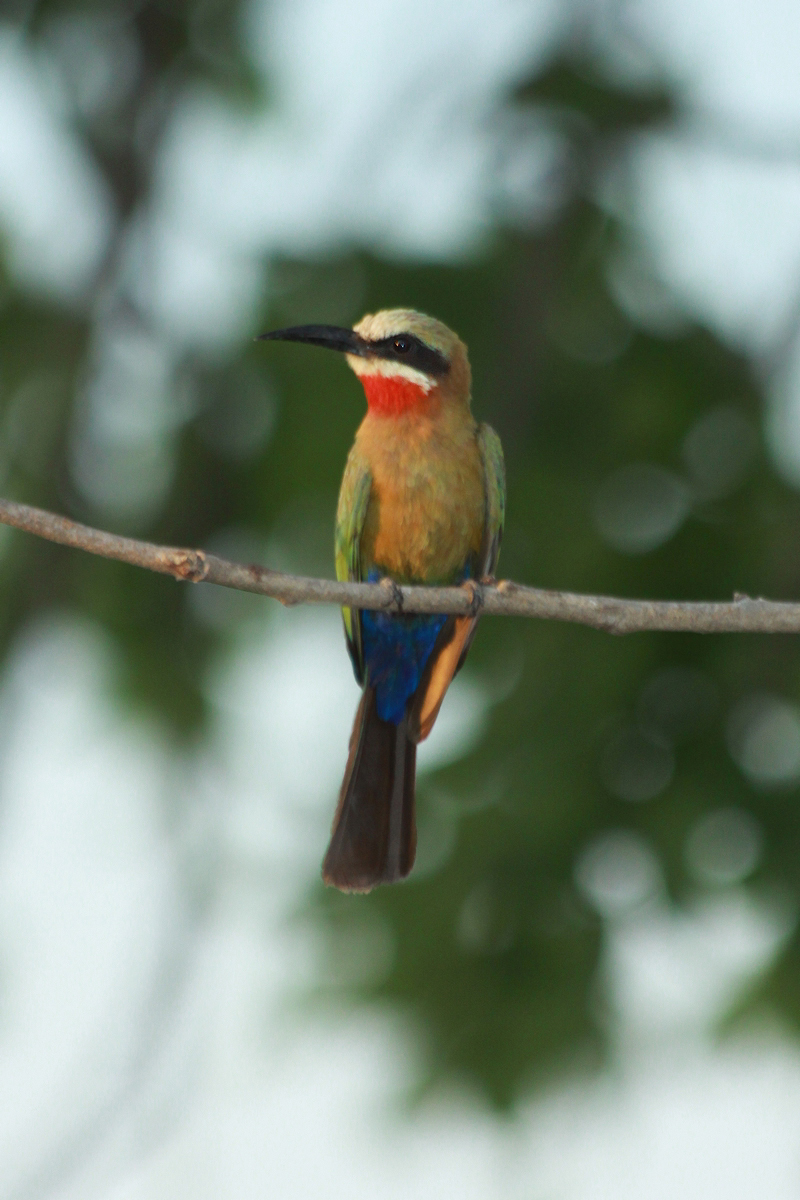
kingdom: Animalia
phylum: Chordata
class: Aves
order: Coraciiformes
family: Meropidae
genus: Merops
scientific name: Merops bullockoides
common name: White-fronted bee-eater
